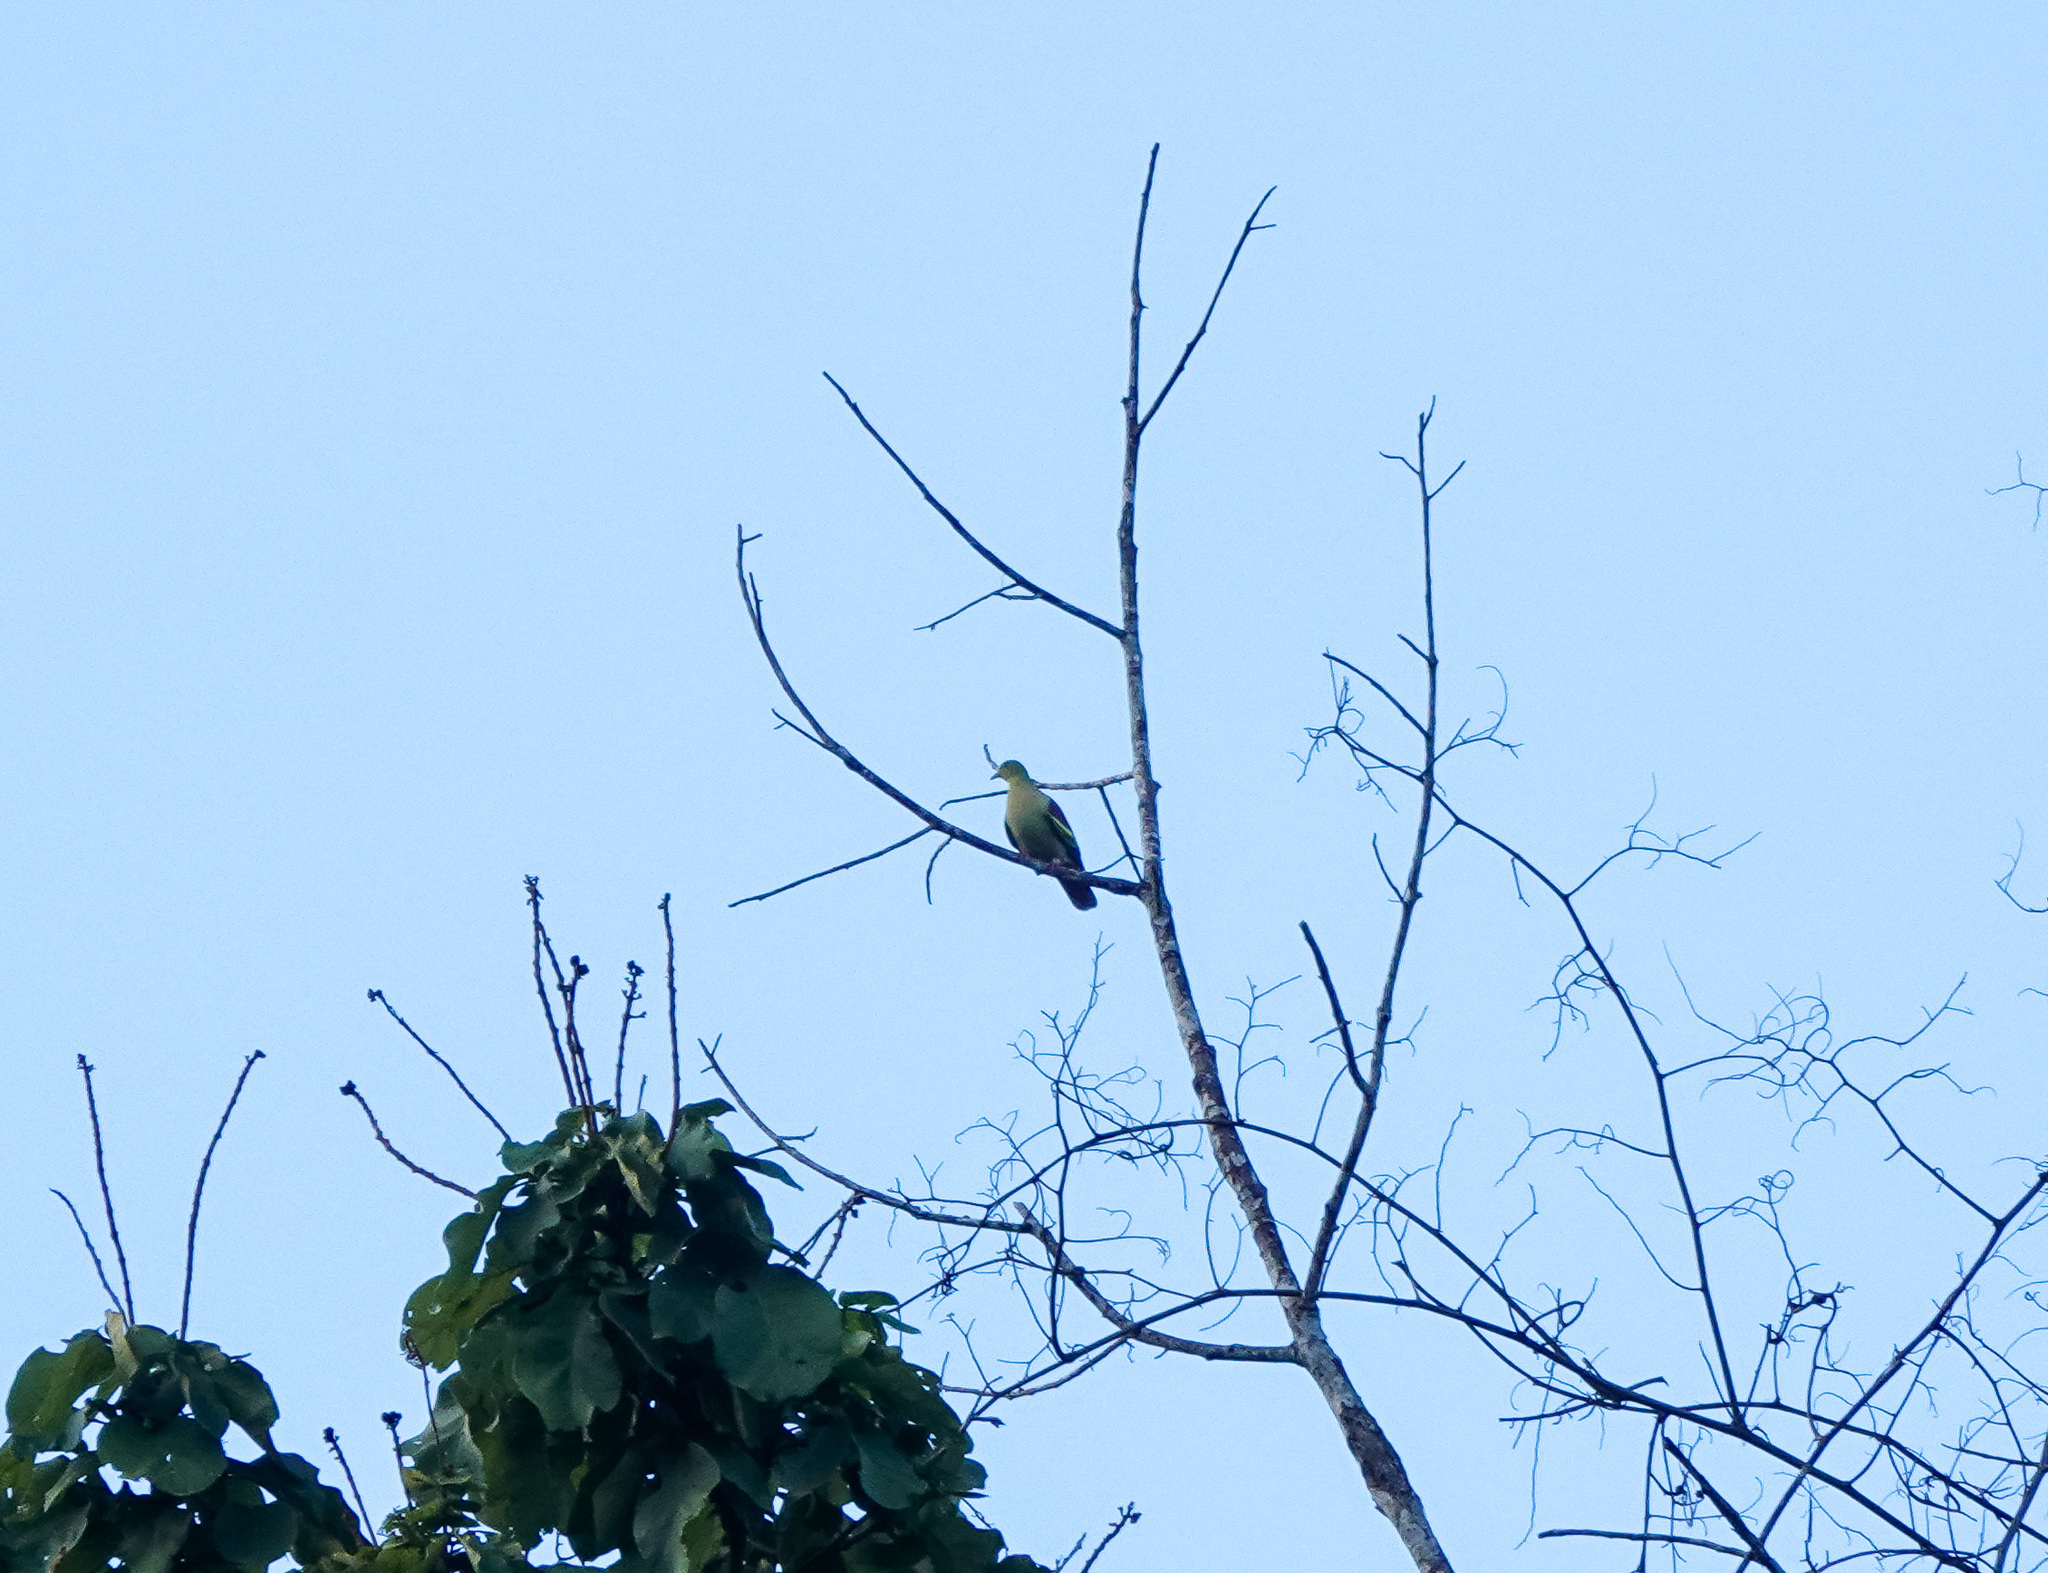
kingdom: Animalia
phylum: Chordata
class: Aves
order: Columbiformes
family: Columbidae
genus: Treron
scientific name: Treron phayrei
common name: Ashy-headed green pigeon
